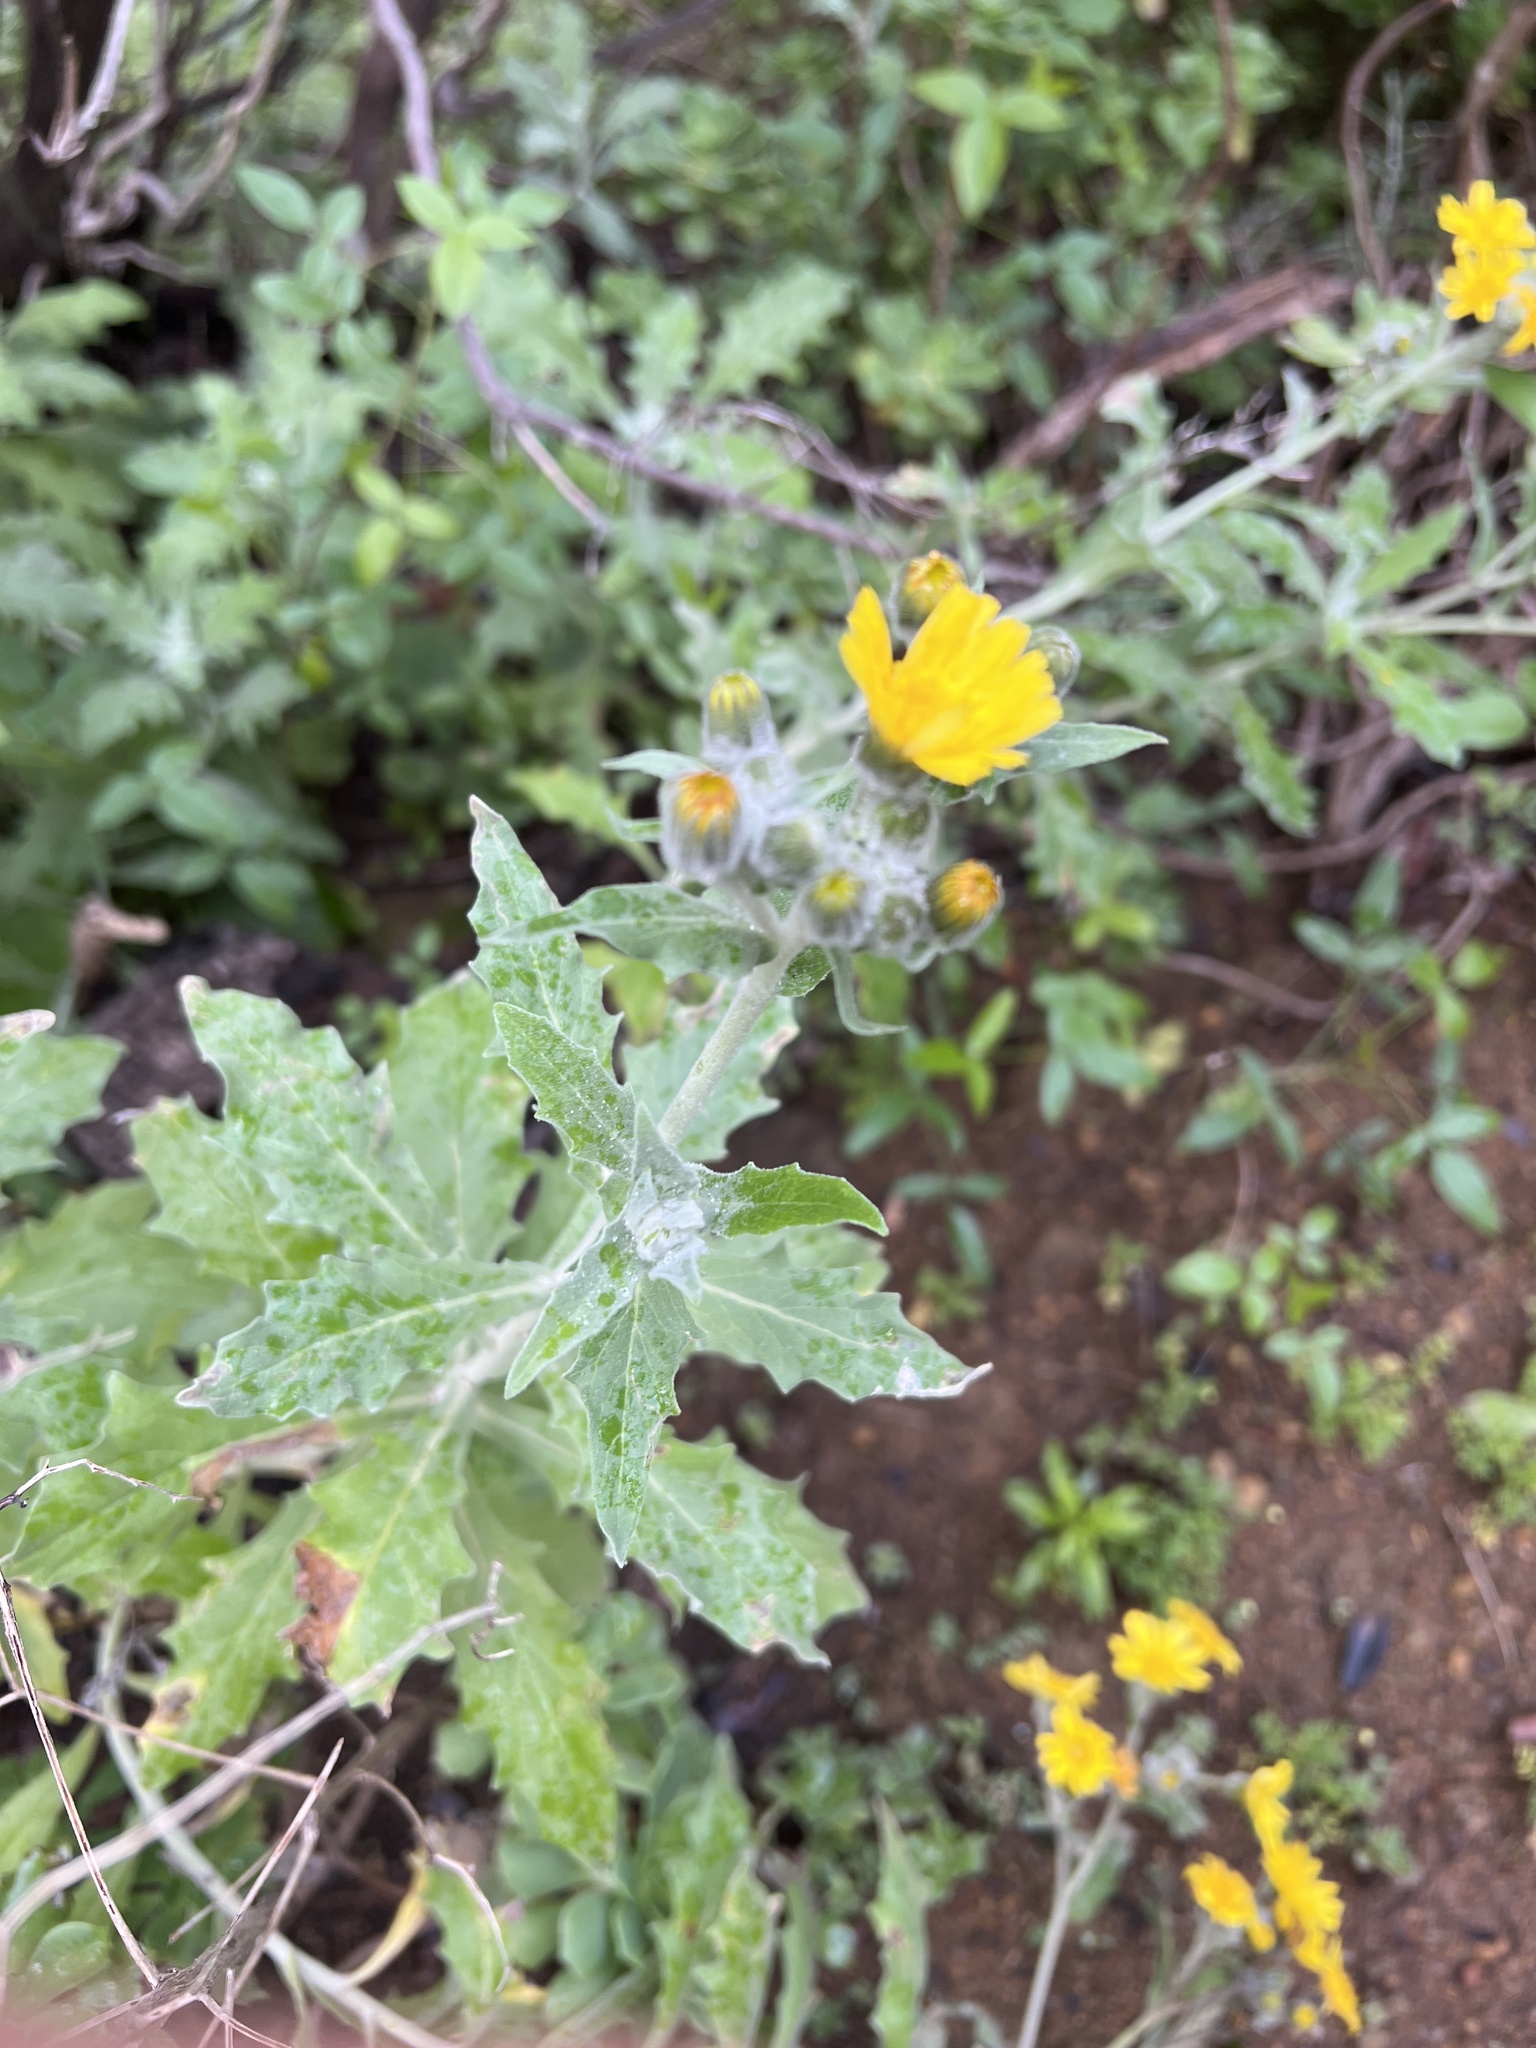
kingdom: Plantae
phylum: Tracheophyta
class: Magnoliopsida
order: Asterales
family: Asteraceae
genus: Andryala
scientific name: Andryala pinnatifida
